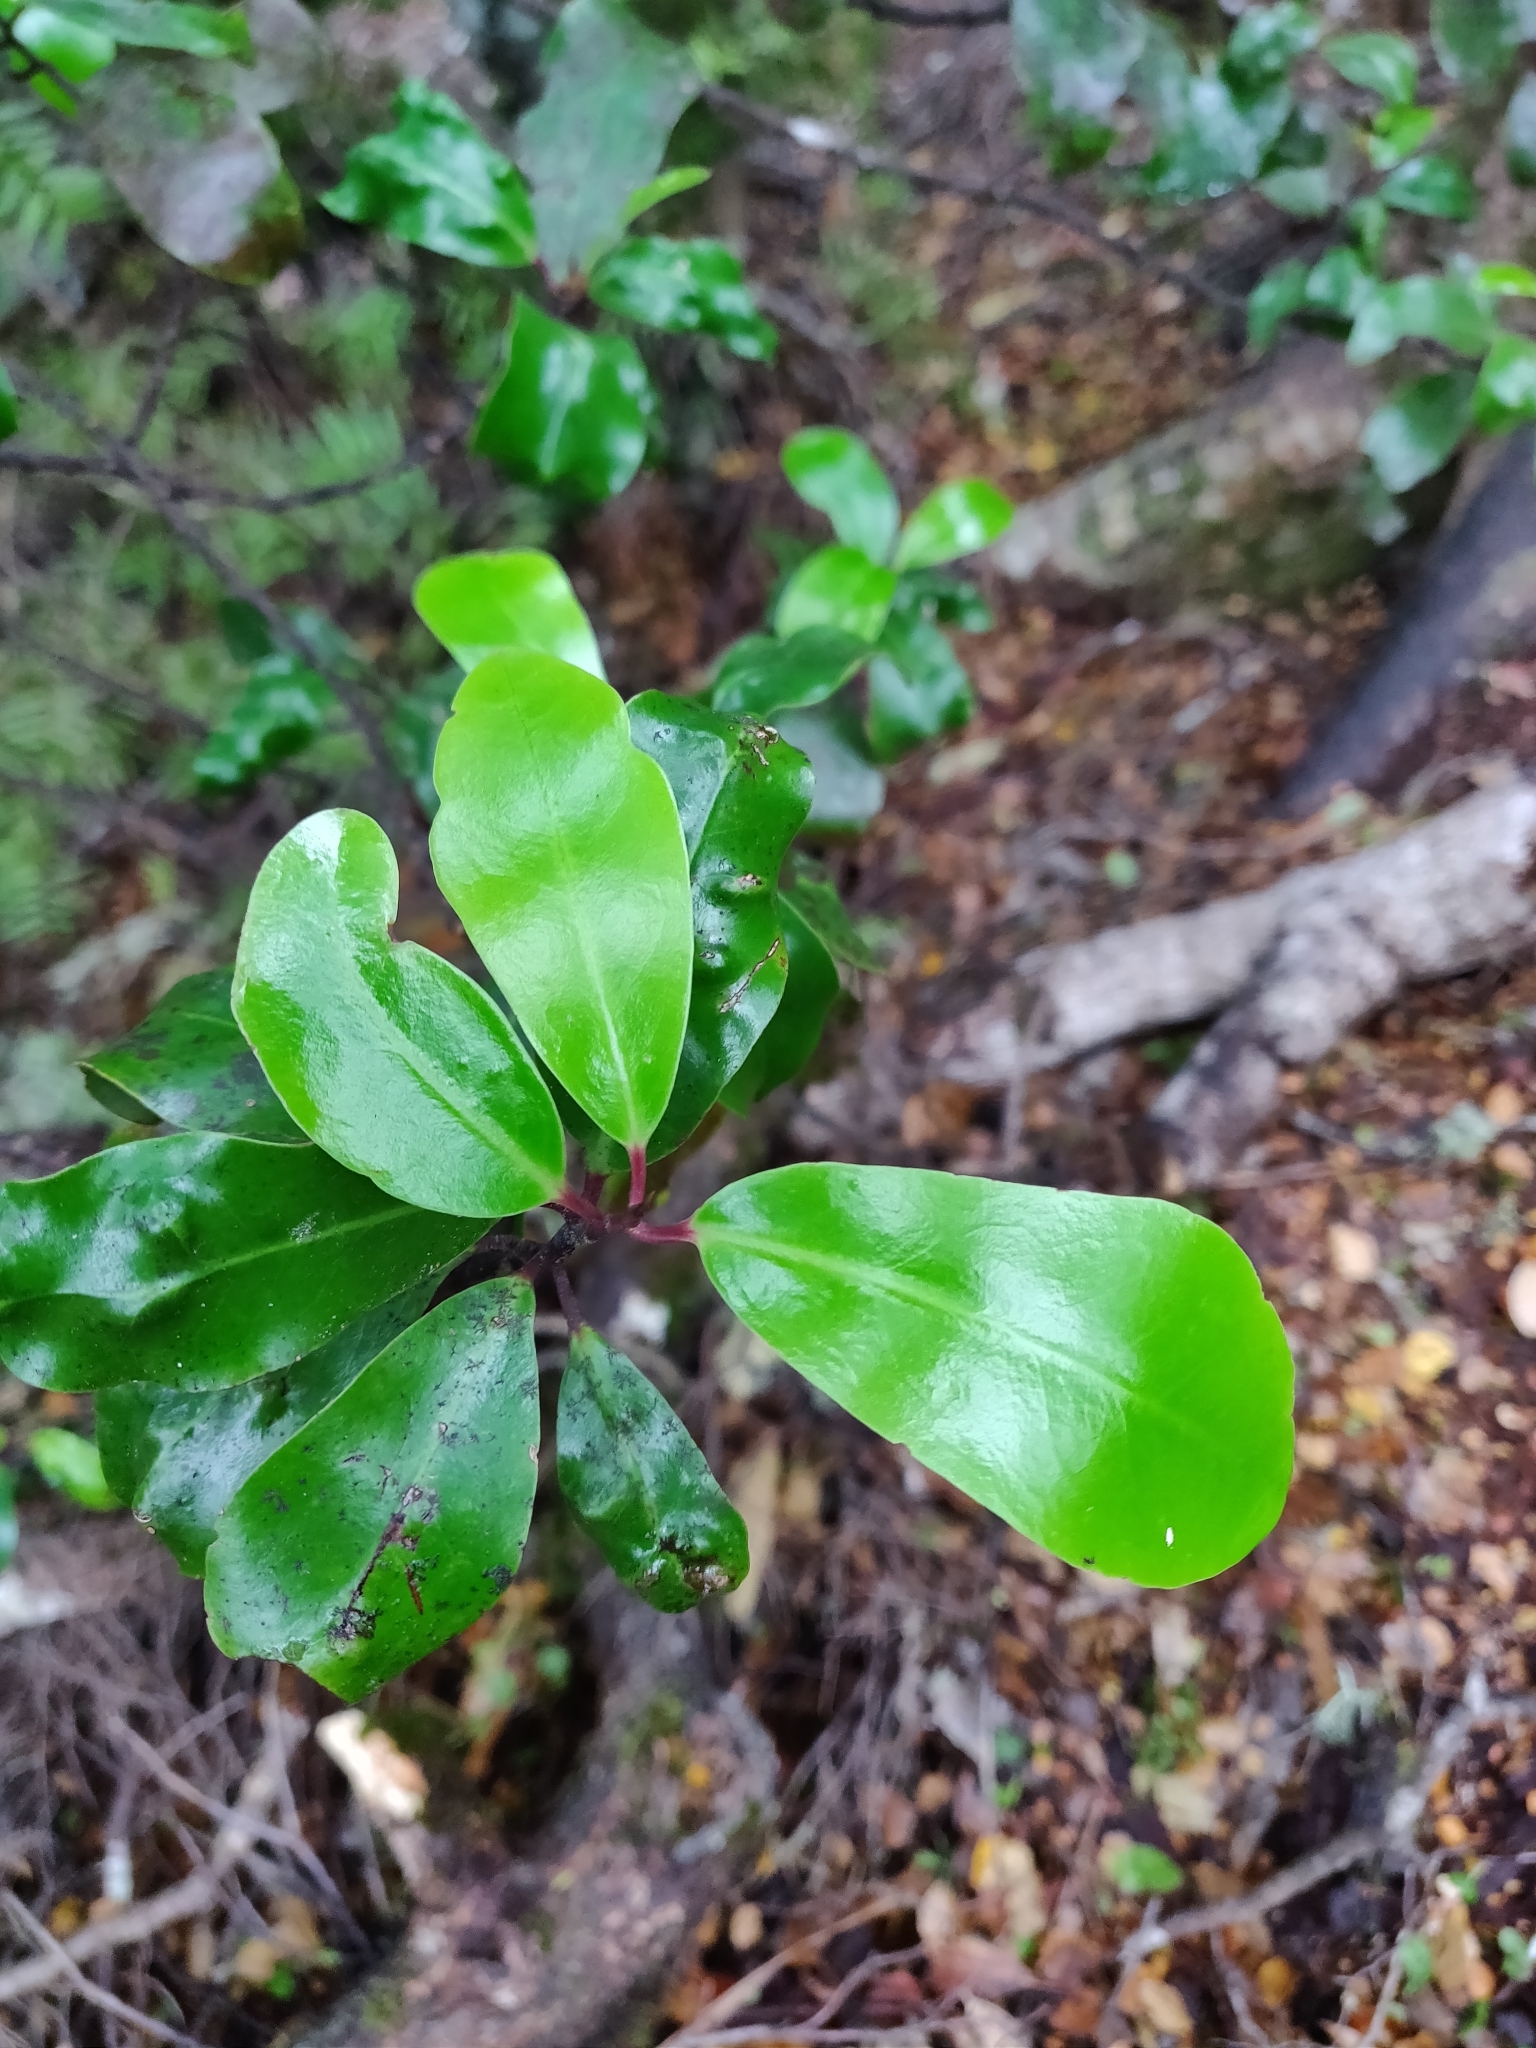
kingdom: Plantae
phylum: Tracheophyta
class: Magnoliopsida
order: Canellales
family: Winteraceae
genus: Pseudowintera
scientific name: Pseudowintera axillaris
